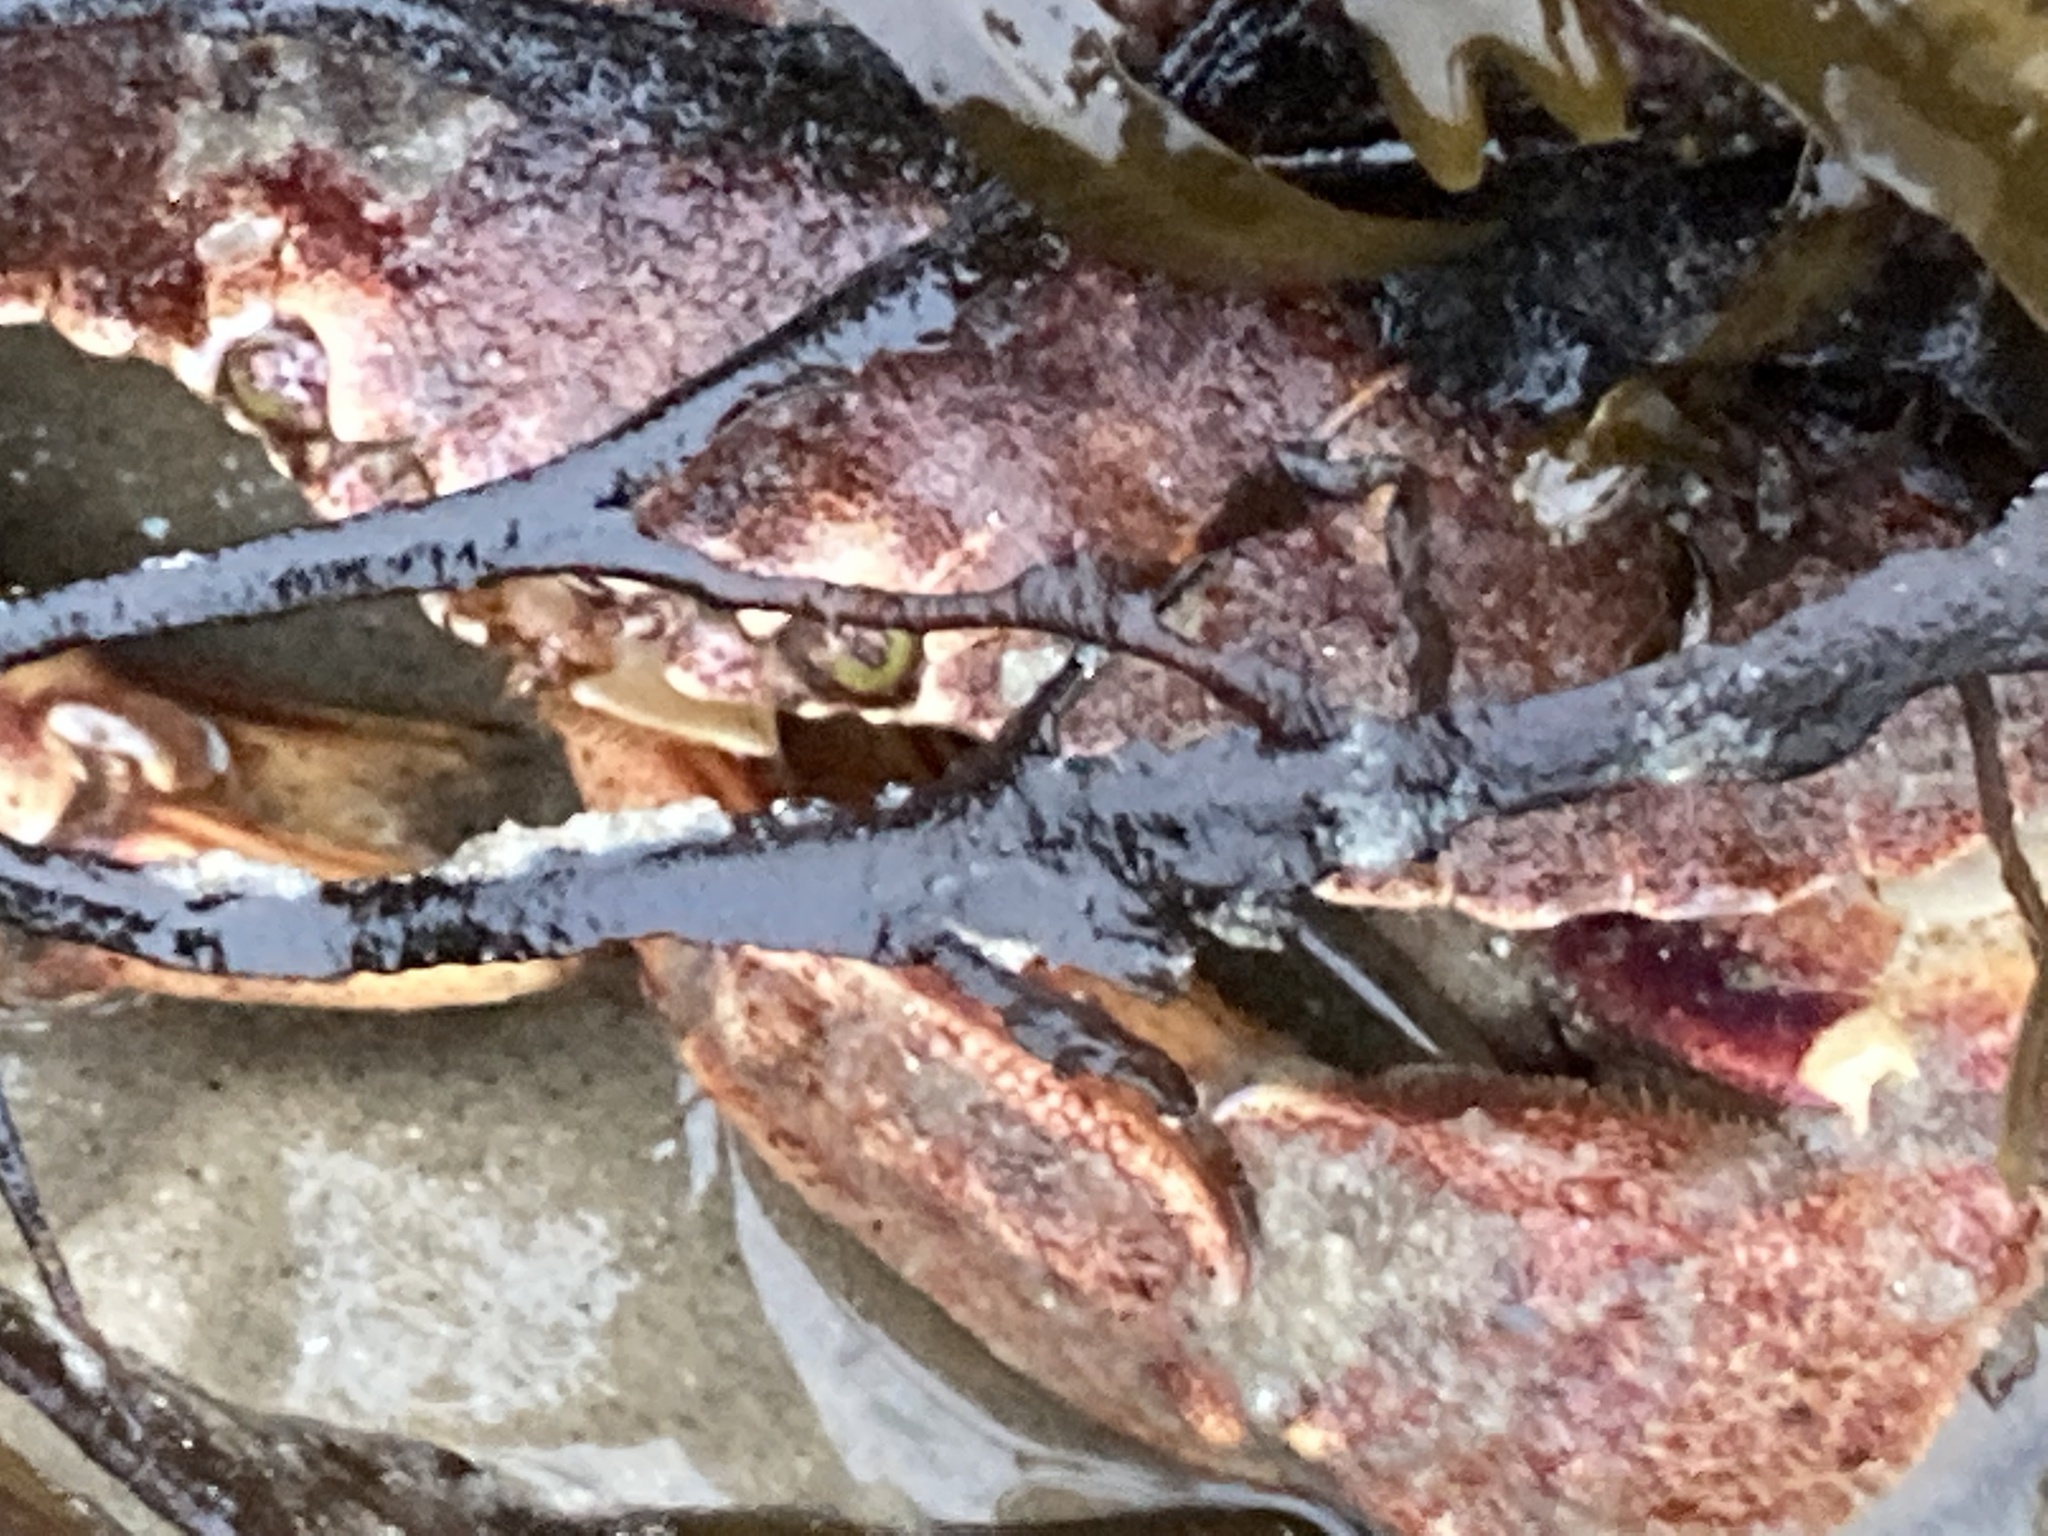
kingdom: Animalia
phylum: Arthropoda
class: Malacostraca
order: Decapoda
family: Cancridae
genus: Cancer
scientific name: Cancer irroratus
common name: Atlantic rock crab
